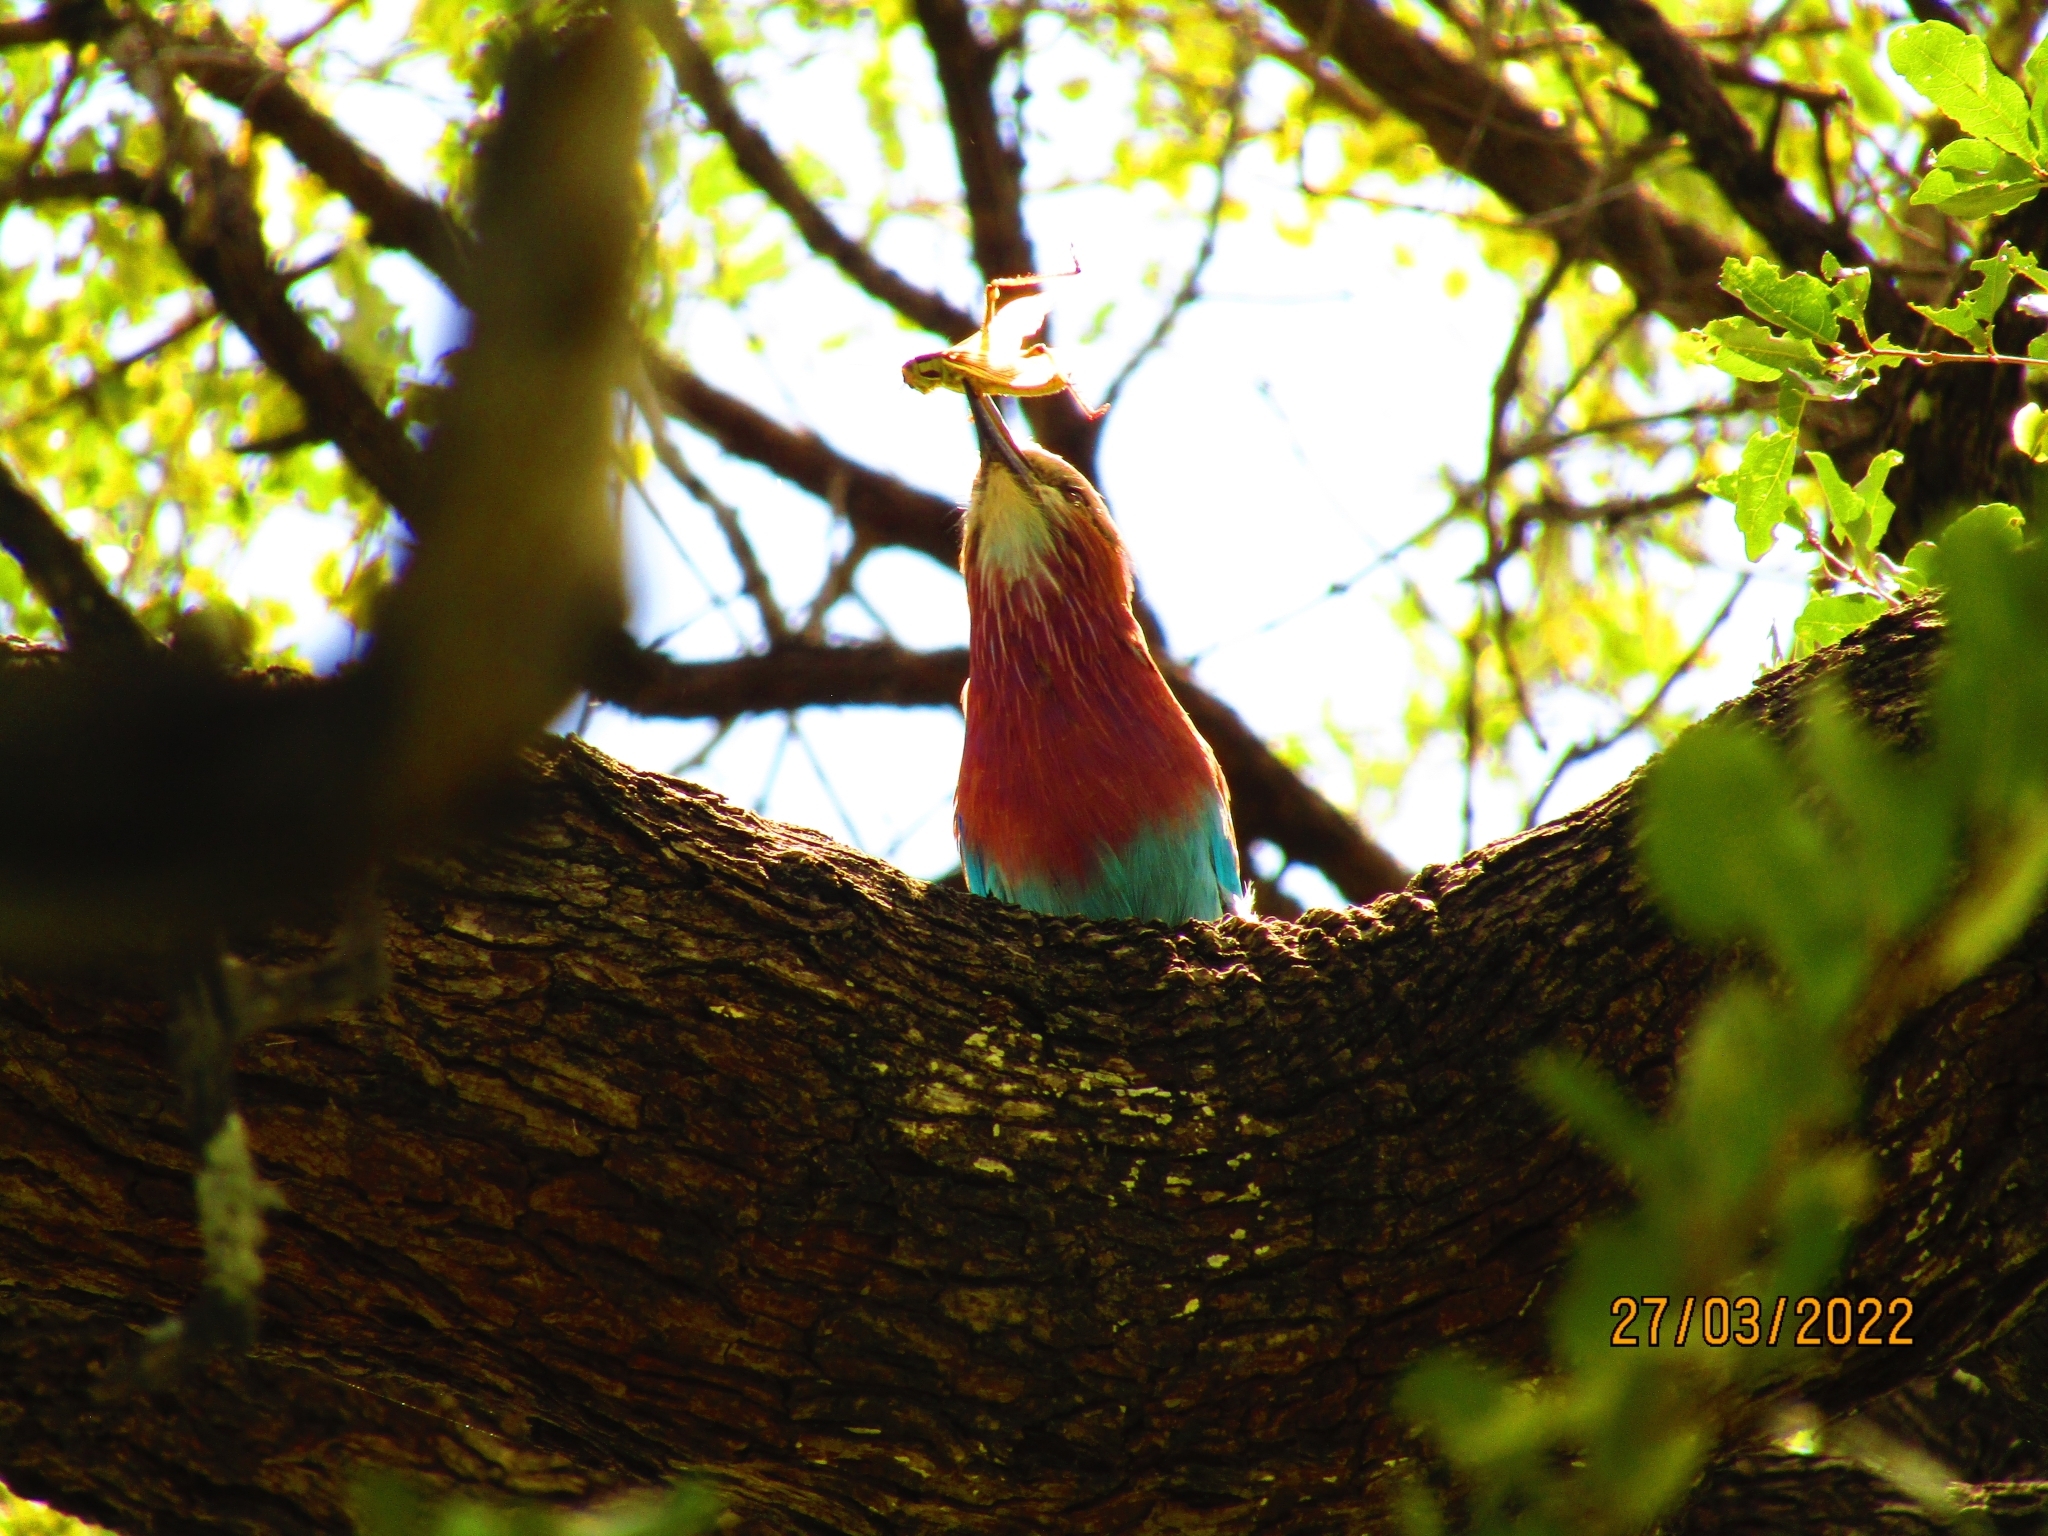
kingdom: Animalia
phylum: Chordata
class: Aves
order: Coraciiformes
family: Coraciidae
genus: Coracias
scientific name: Coracias caudatus
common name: Lilac-breasted roller
